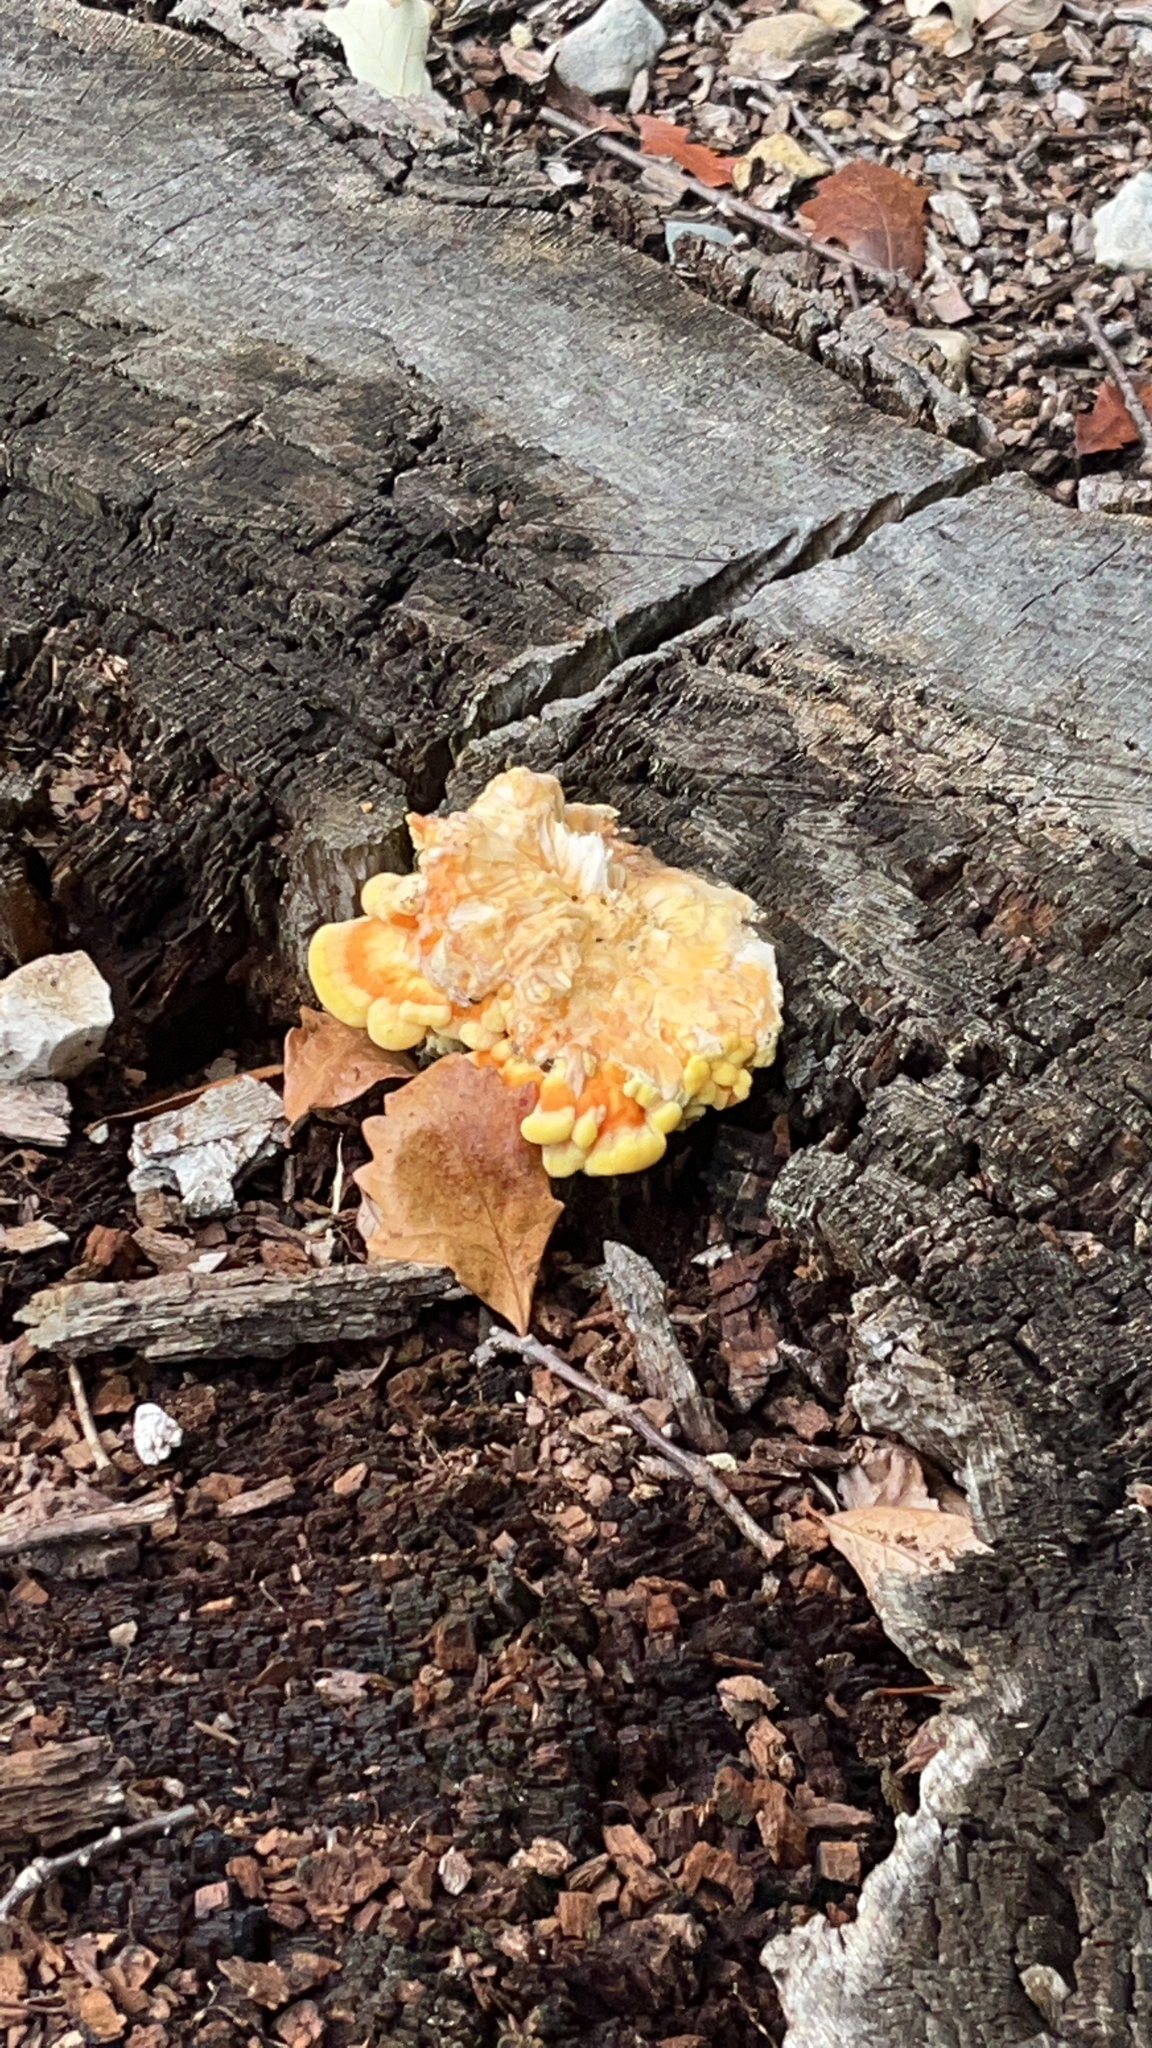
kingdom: Fungi
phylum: Basidiomycota
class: Agaricomycetes
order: Polyporales
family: Laetiporaceae
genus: Laetiporus
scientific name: Laetiporus sulphureus
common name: Chicken of the woods
